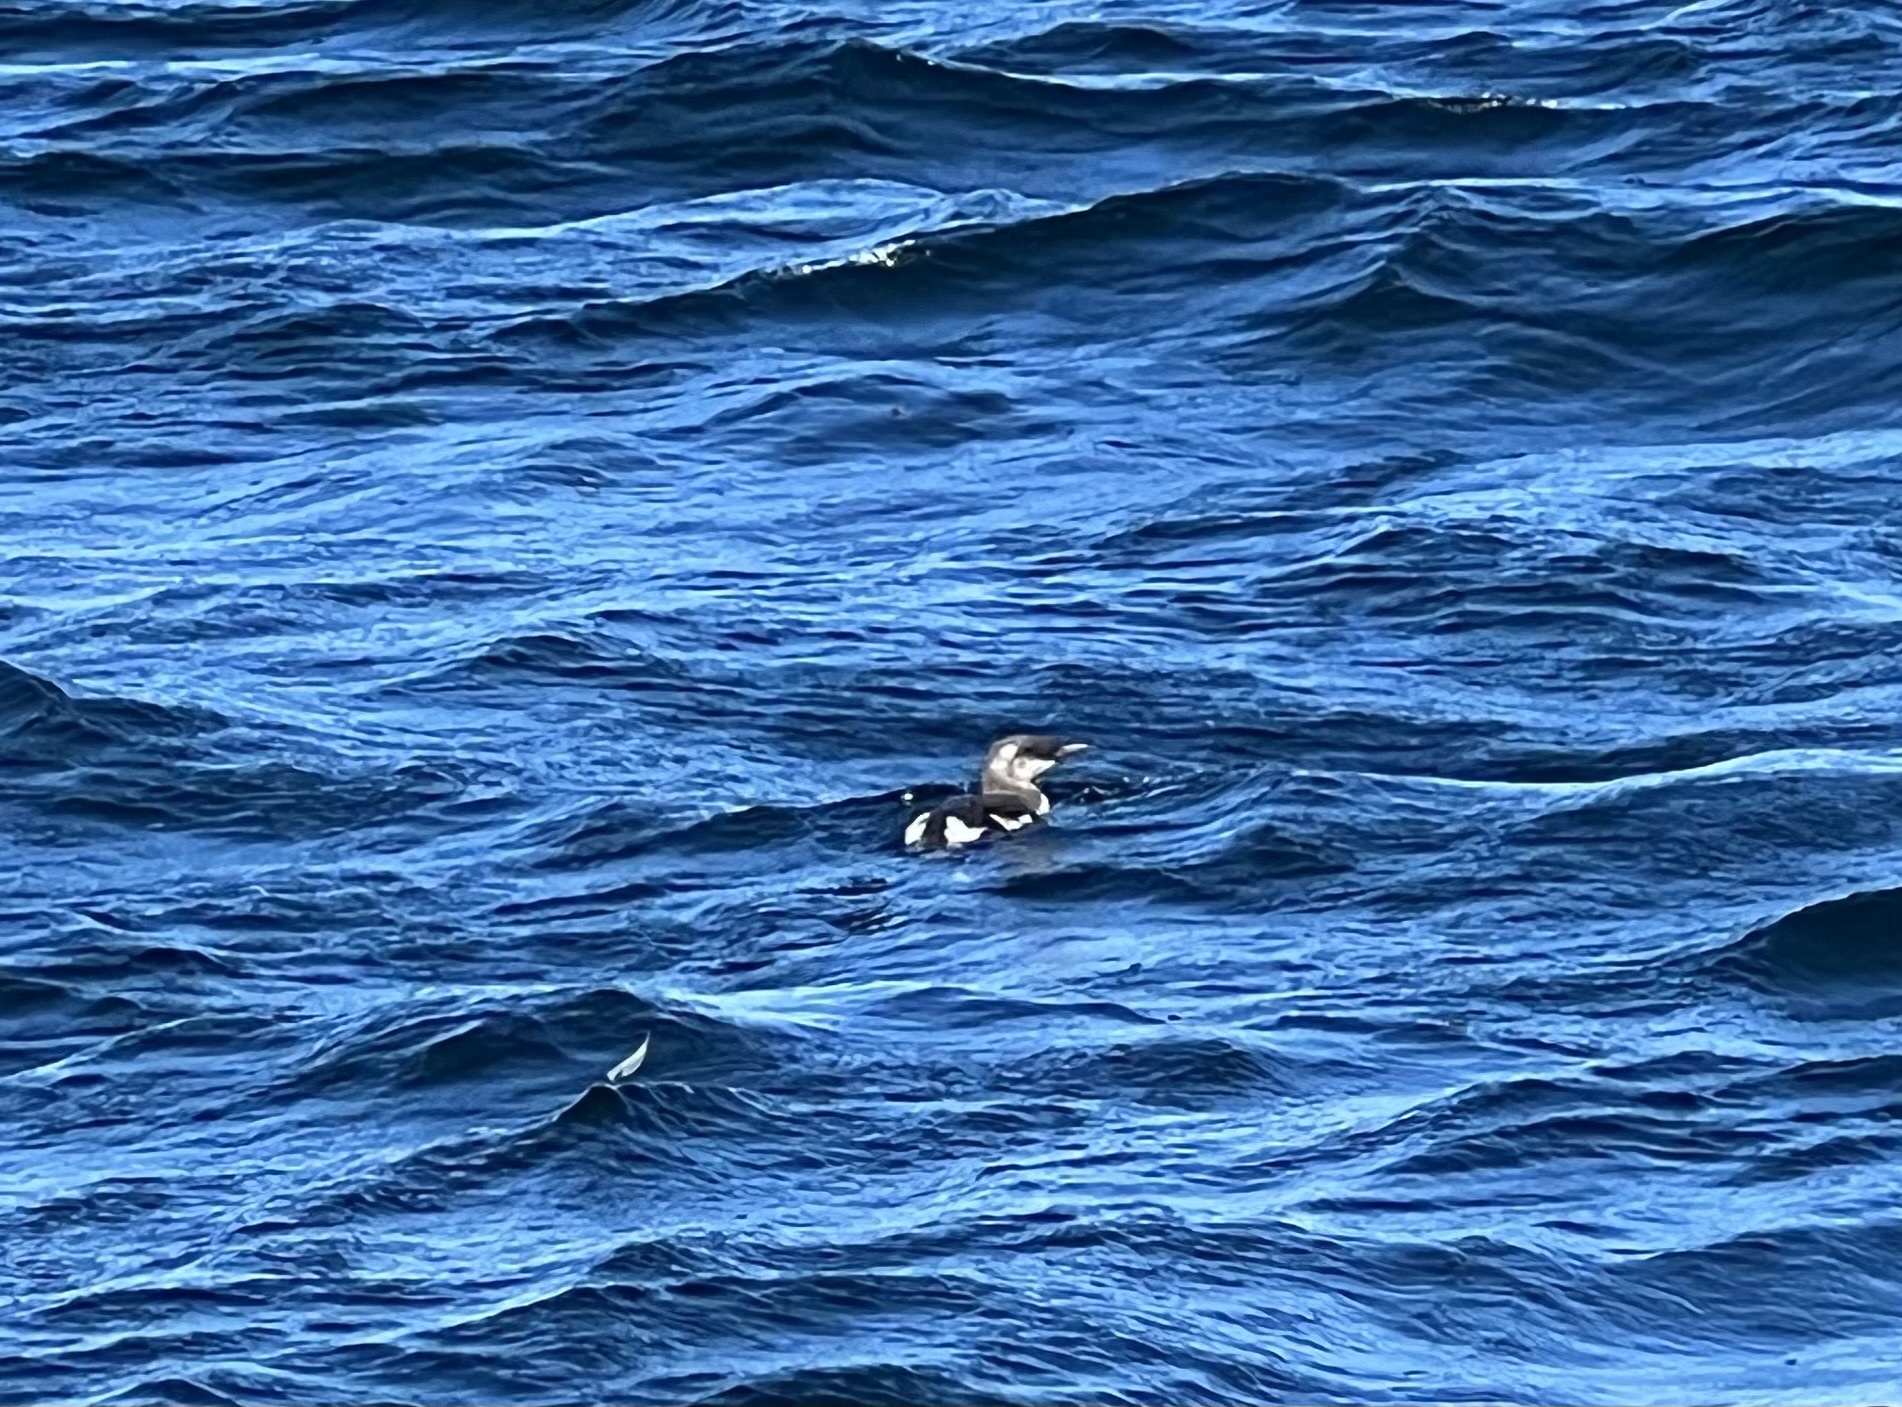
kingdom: Animalia
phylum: Chordata
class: Aves
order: Charadriiformes
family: Alcidae
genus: Uria
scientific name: Uria aalge
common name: Common murre
